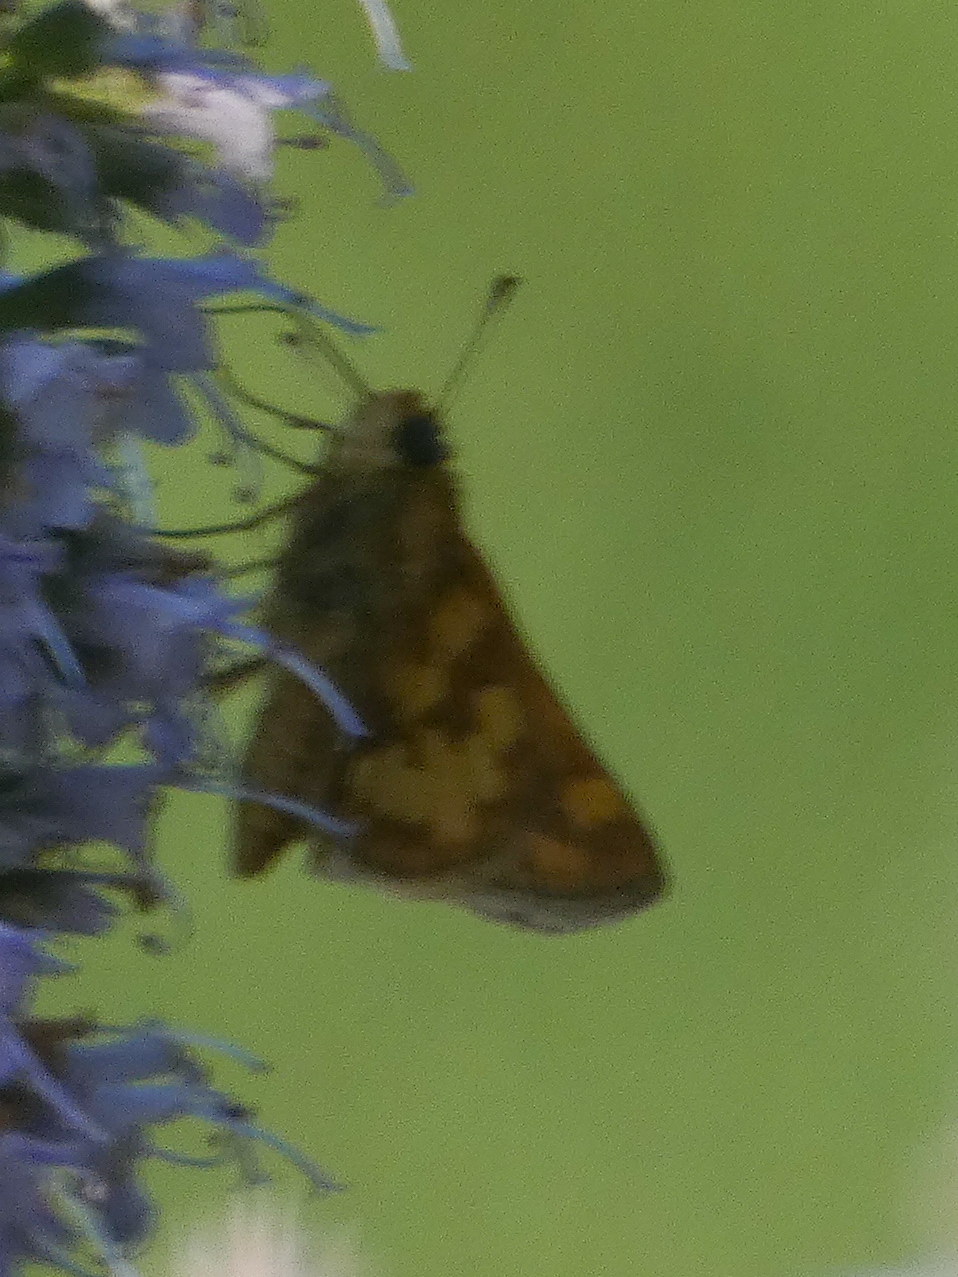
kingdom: Animalia
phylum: Arthropoda
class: Insecta
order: Lepidoptera
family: Hesperiidae
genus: Polites
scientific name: Polites coras
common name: Peck's skipper
